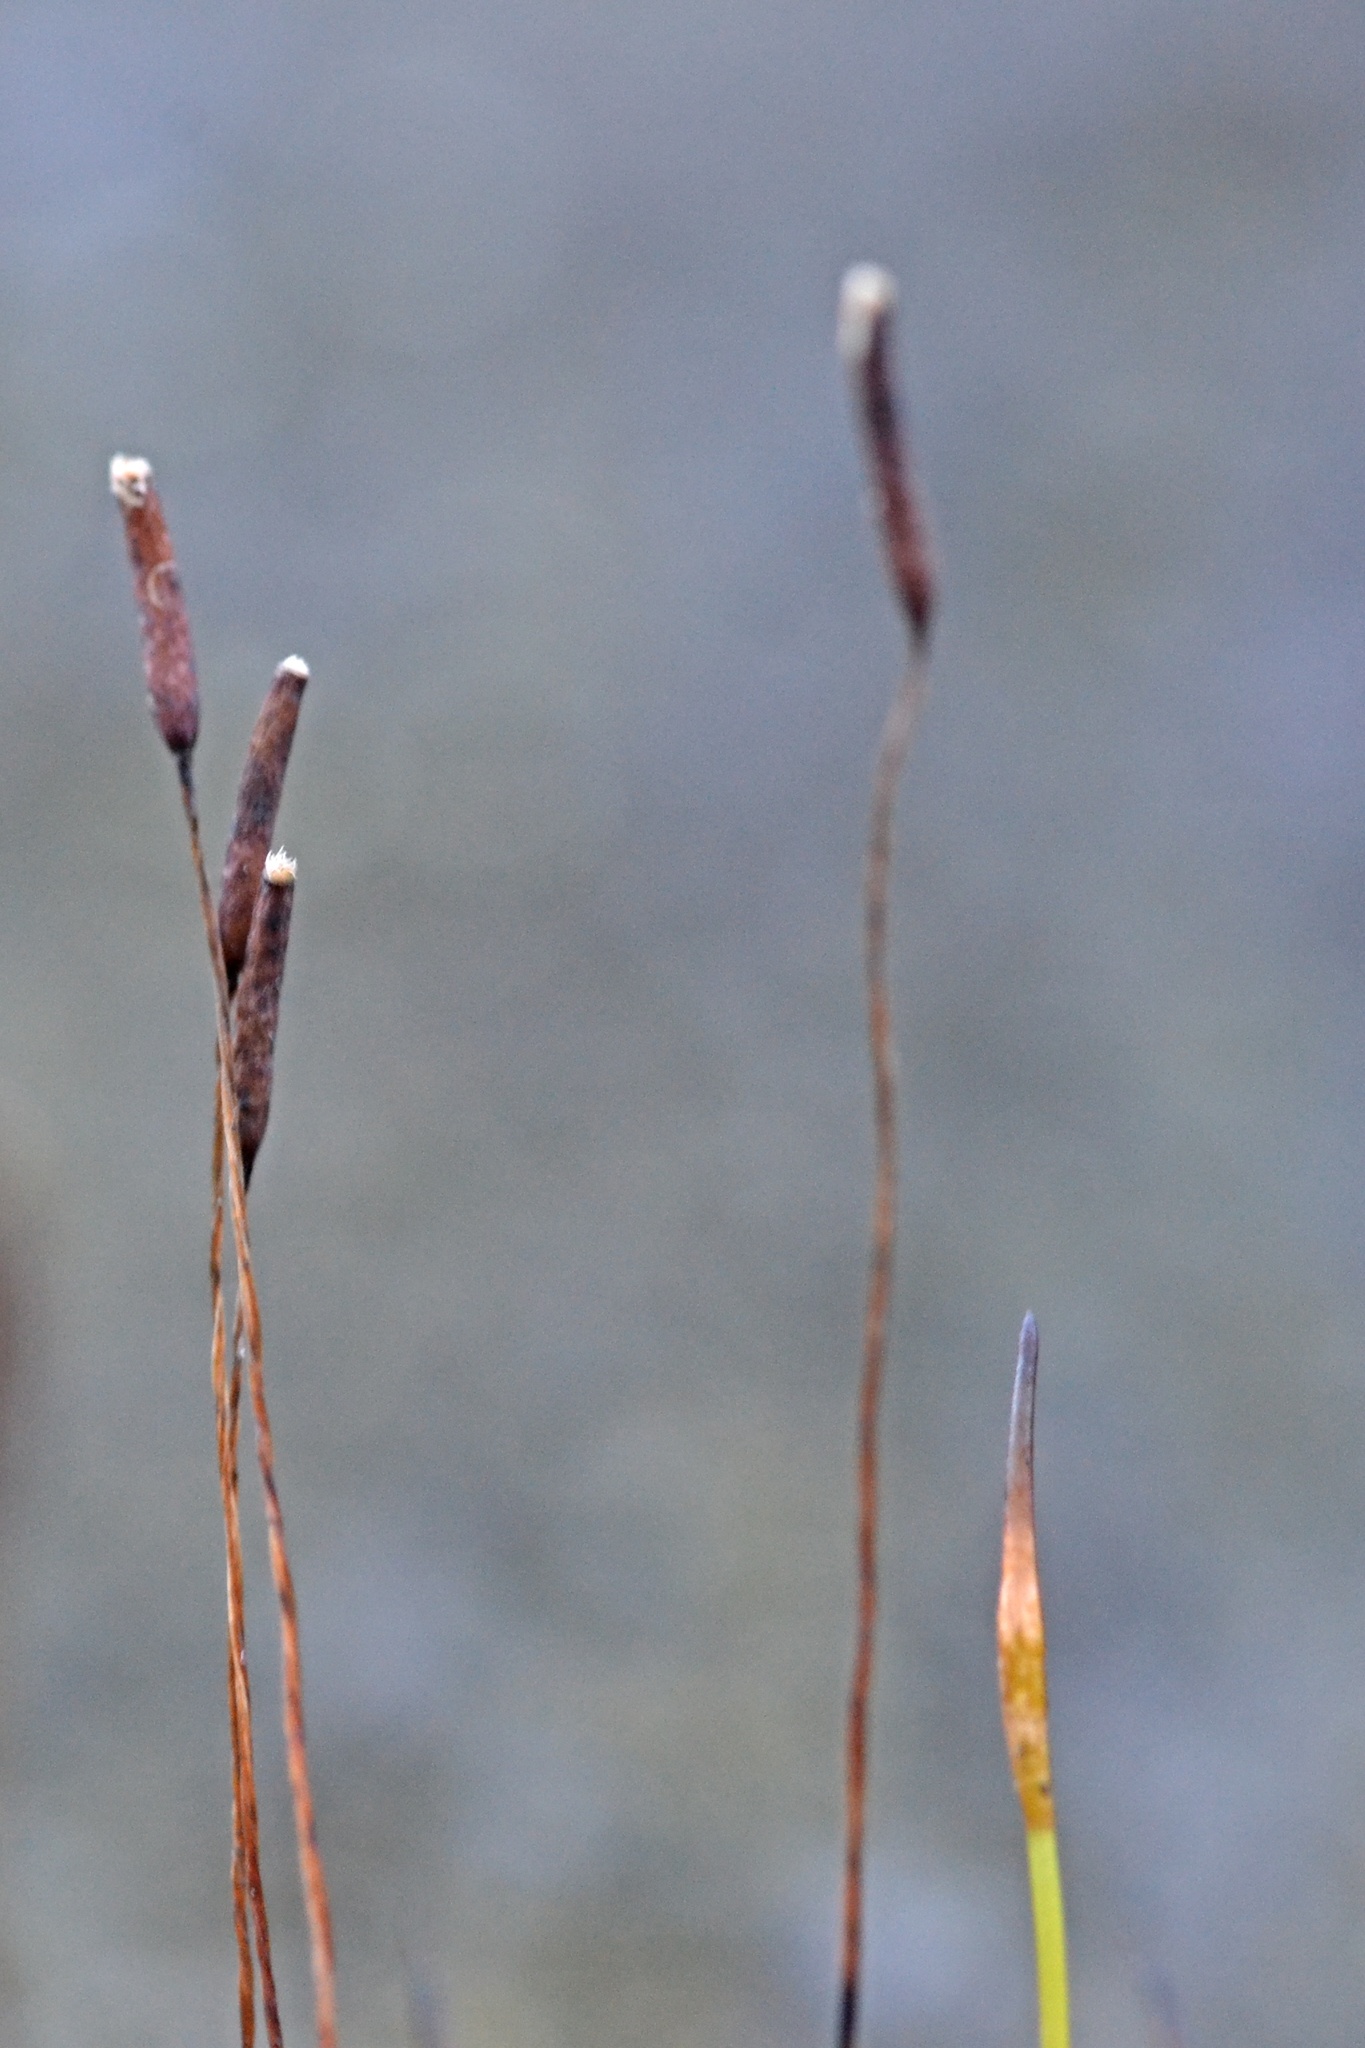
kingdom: Plantae
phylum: Bryophyta
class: Bryopsida
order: Pottiales
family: Pottiaceae
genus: Tortula
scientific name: Tortula muralis
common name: Wall screw-moss
